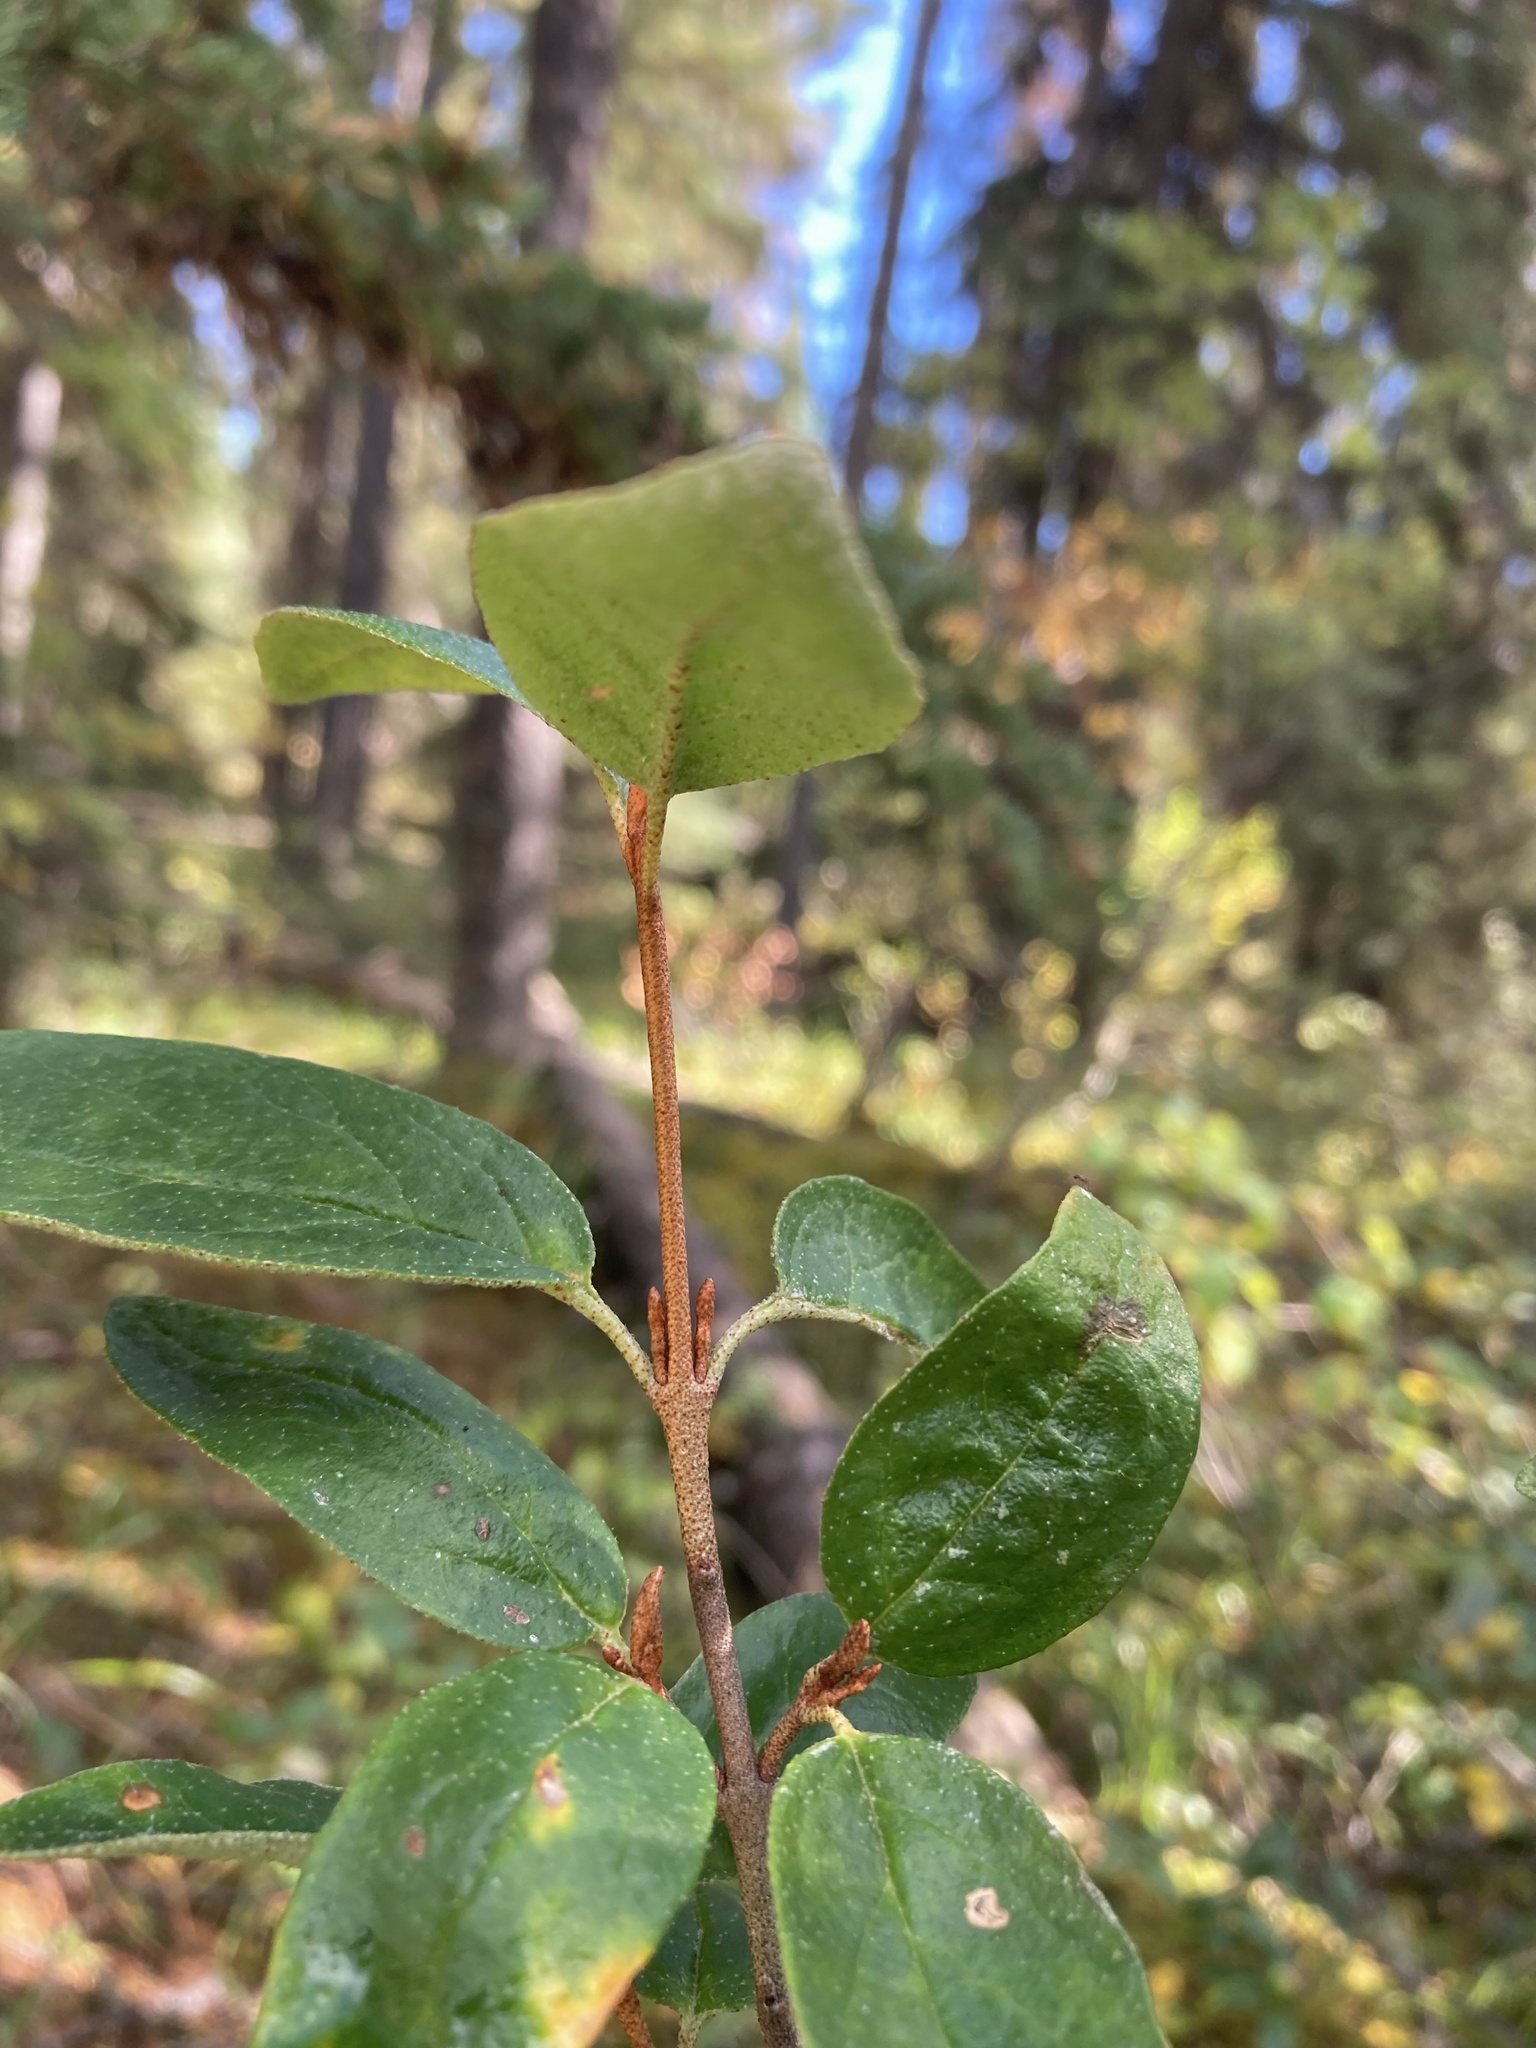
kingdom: Plantae
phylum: Tracheophyta
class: Magnoliopsida
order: Rosales
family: Elaeagnaceae
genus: Shepherdia
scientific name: Shepherdia canadensis
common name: Soapberry
